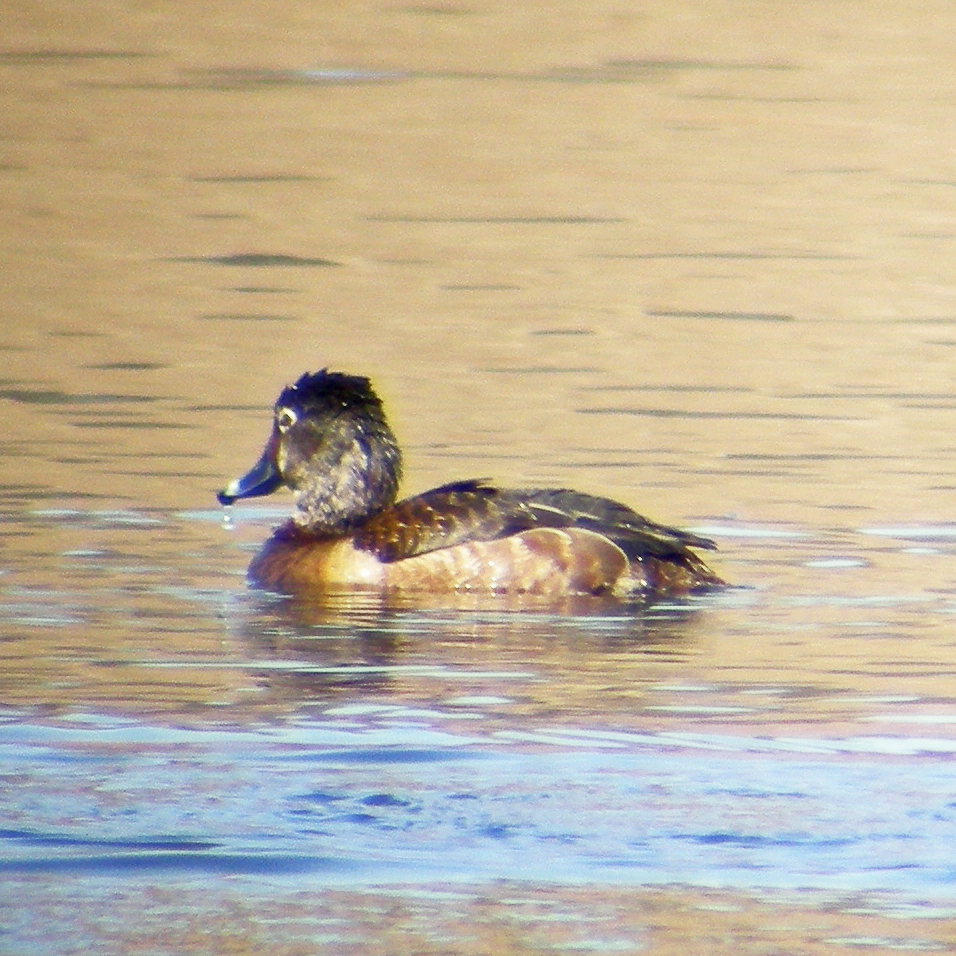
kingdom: Animalia
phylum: Chordata
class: Aves
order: Anseriformes
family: Anatidae
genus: Aythya
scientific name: Aythya collaris
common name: Ring-necked duck
